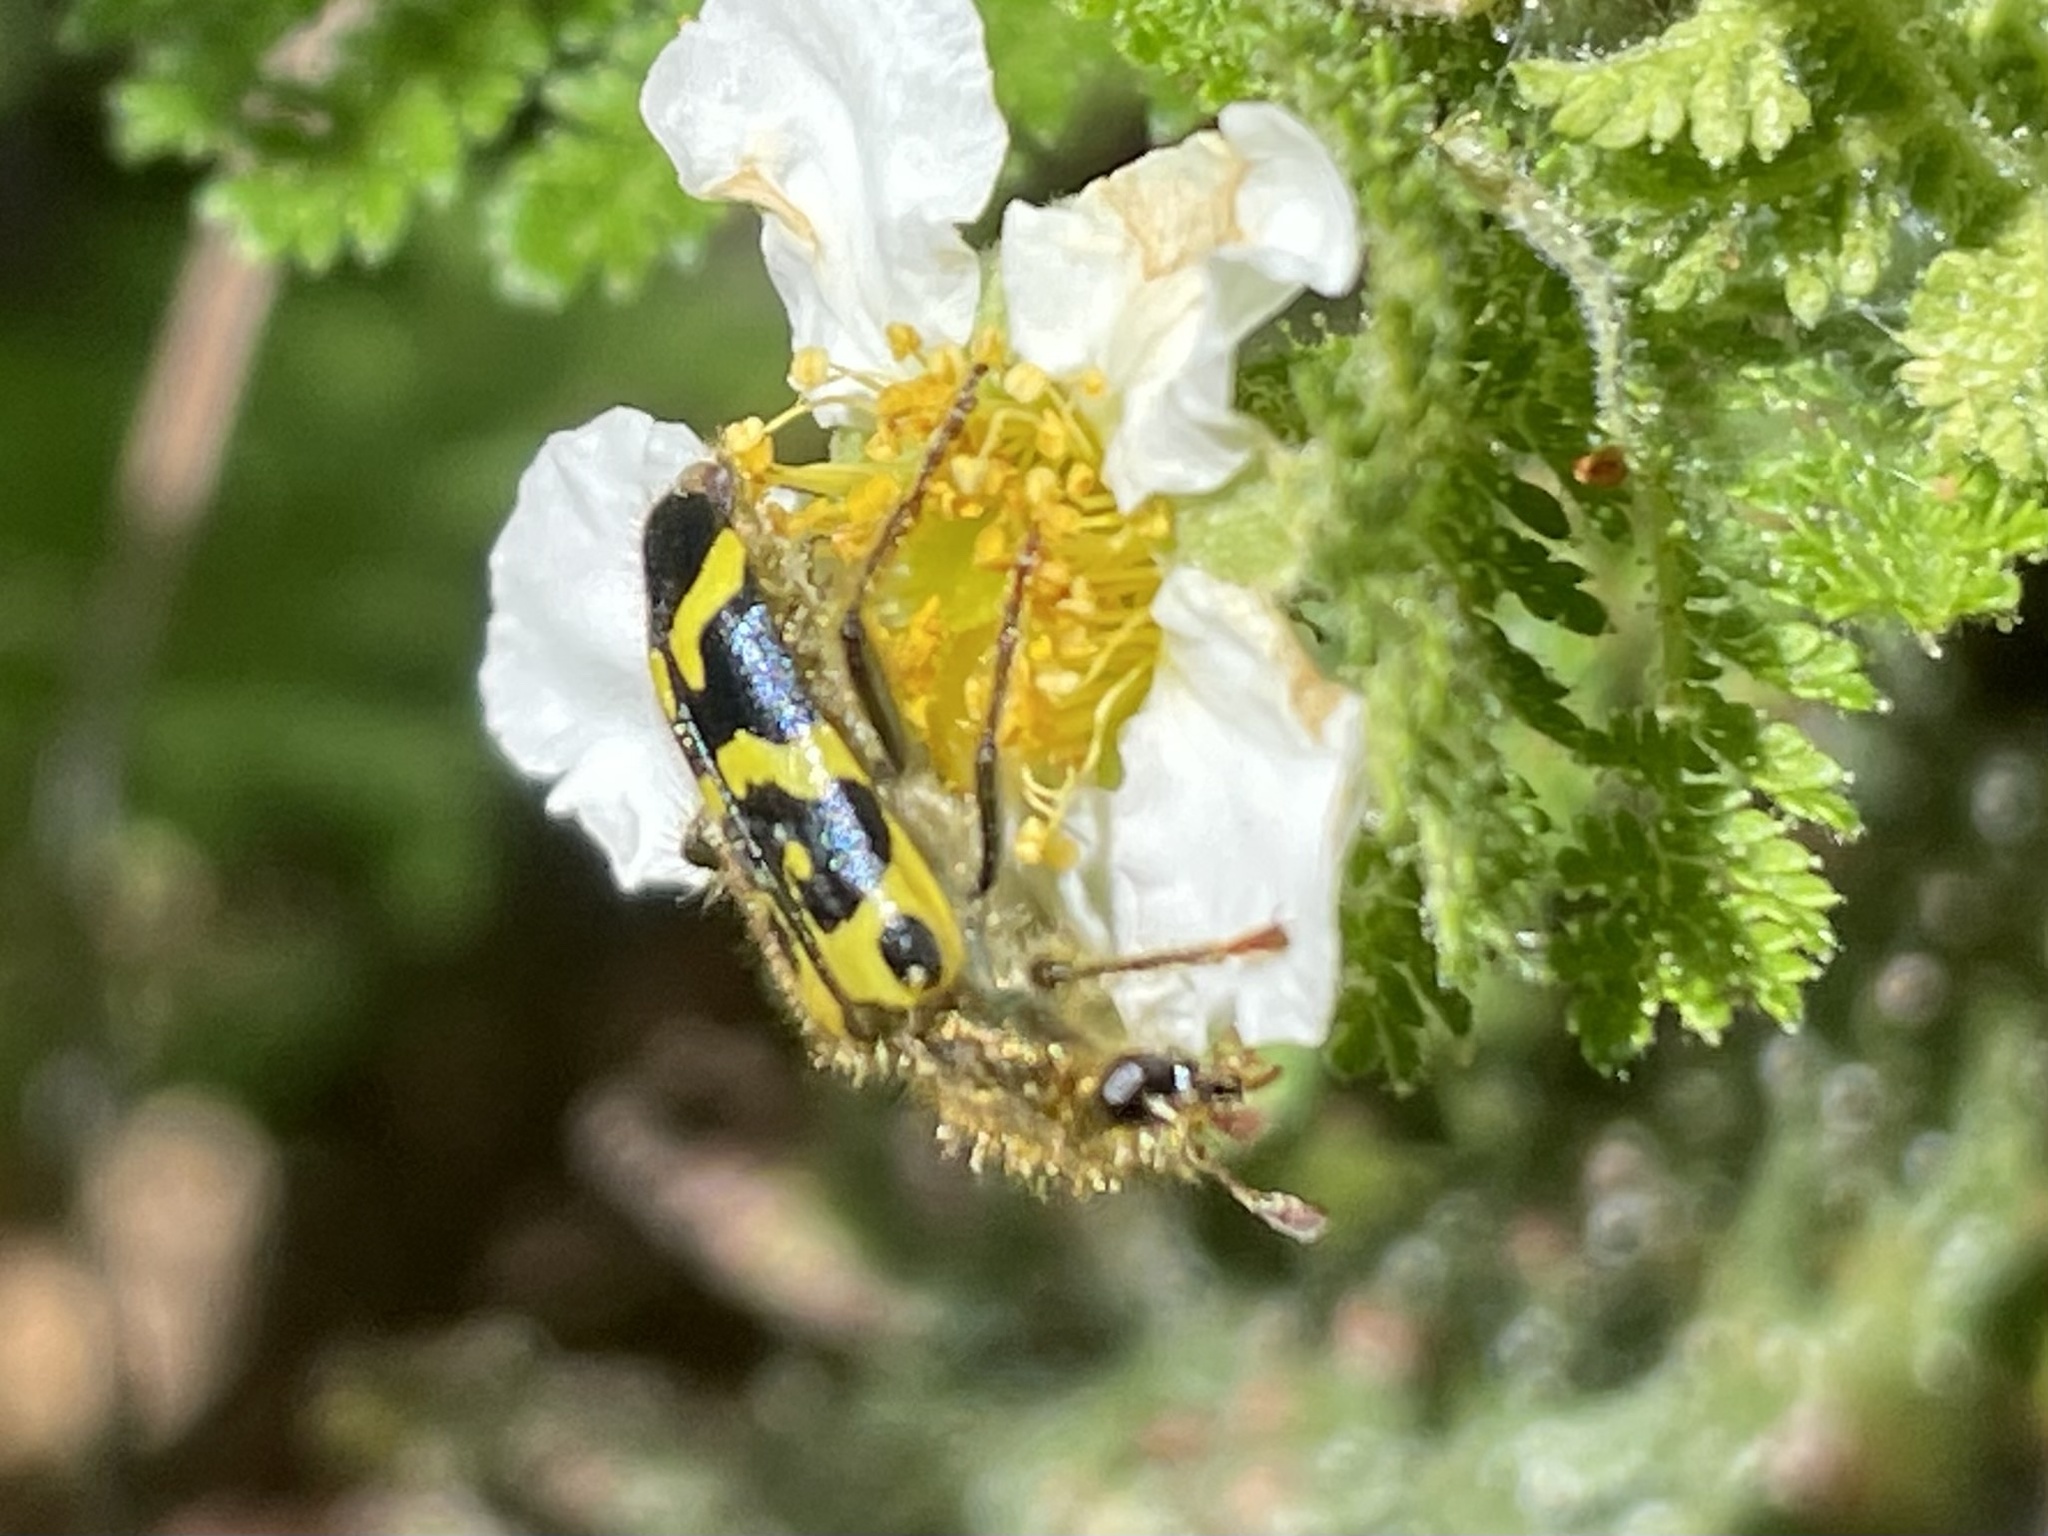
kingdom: Animalia
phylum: Arthropoda
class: Insecta
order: Coleoptera
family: Cleridae
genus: Trichodes
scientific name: Trichodes ornatus
